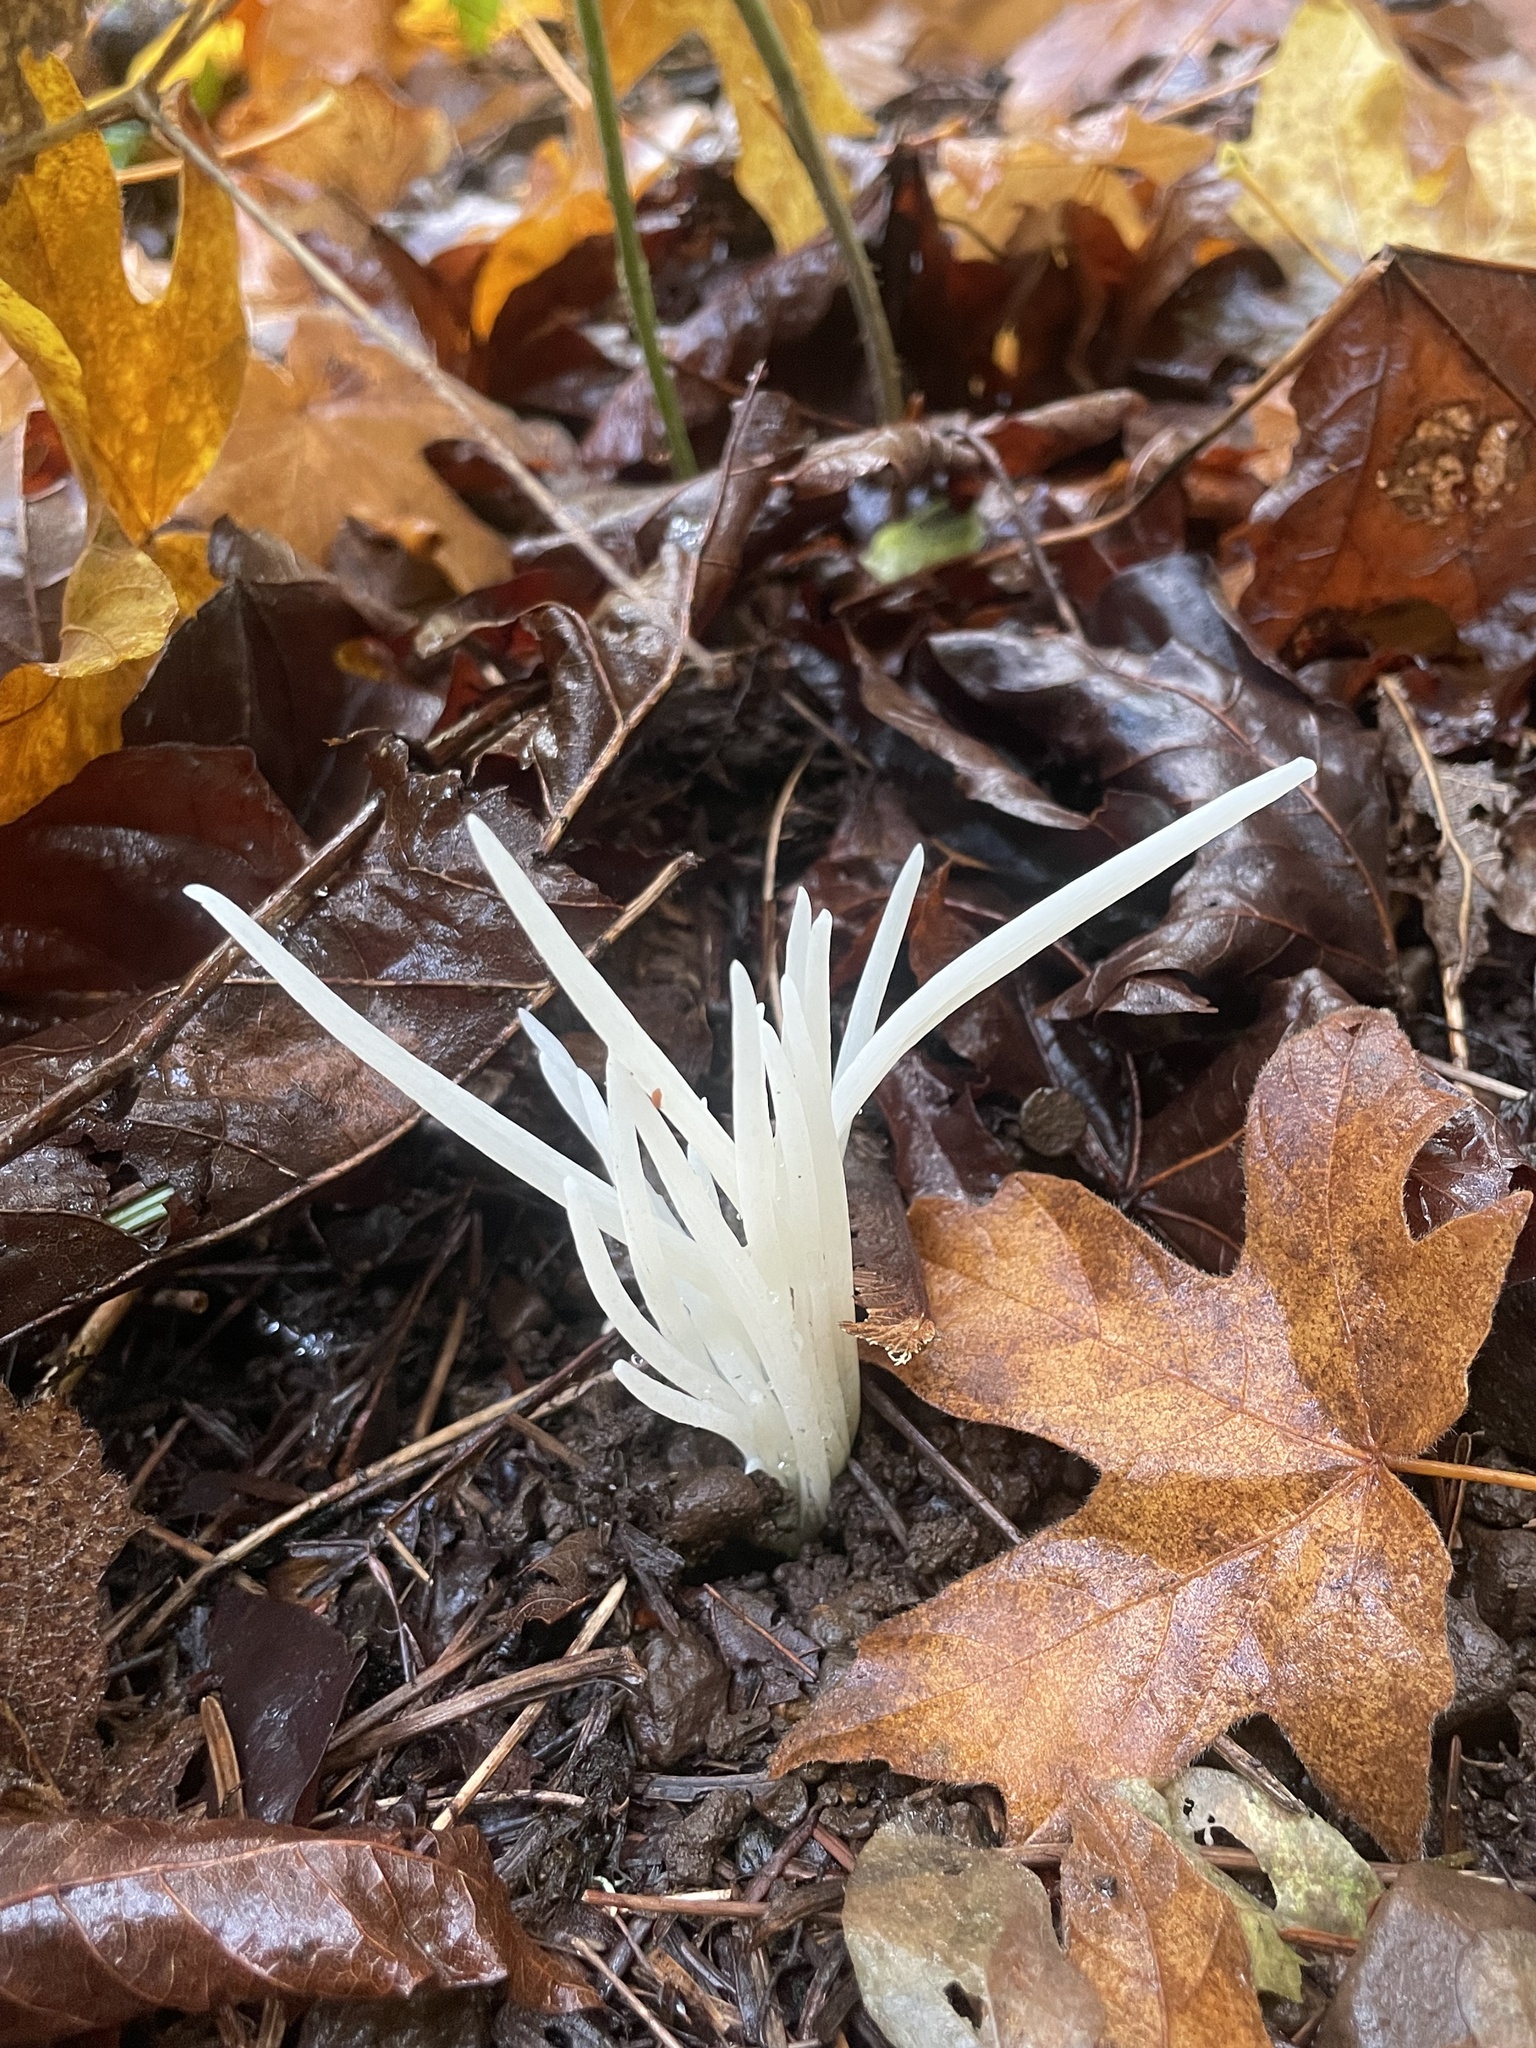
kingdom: Fungi
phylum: Basidiomycota
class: Agaricomycetes
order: Agaricales
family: Clavariaceae
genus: Clavaria
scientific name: Clavaria fragilis
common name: White spindles
